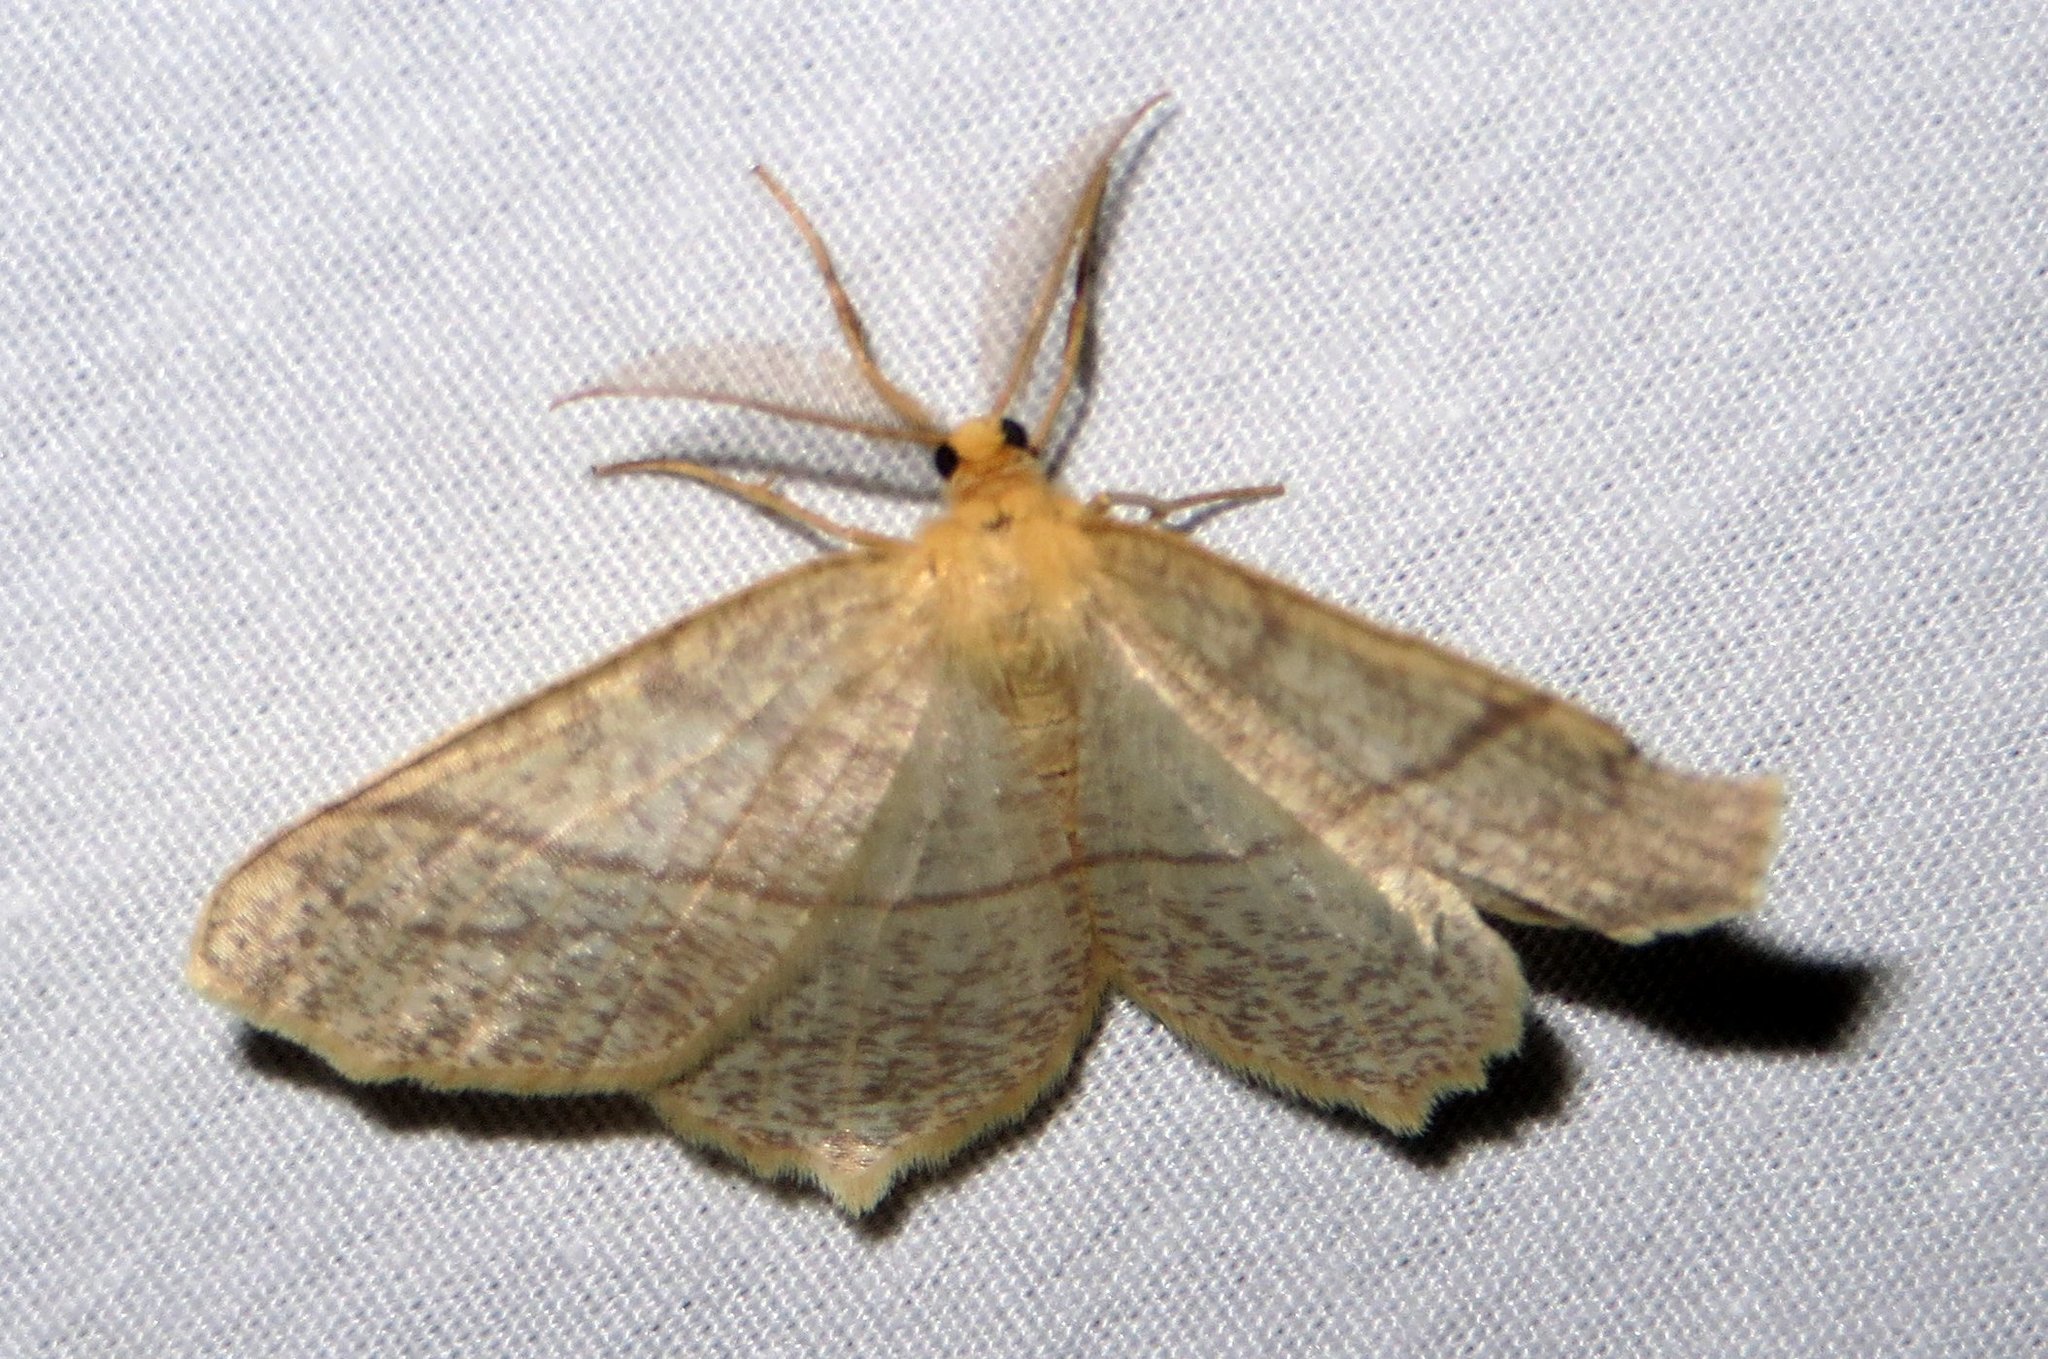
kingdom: Animalia
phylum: Arthropoda
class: Insecta
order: Lepidoptera
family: Geometridae
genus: Besma
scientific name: Besma endropiaria
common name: Straw besma
